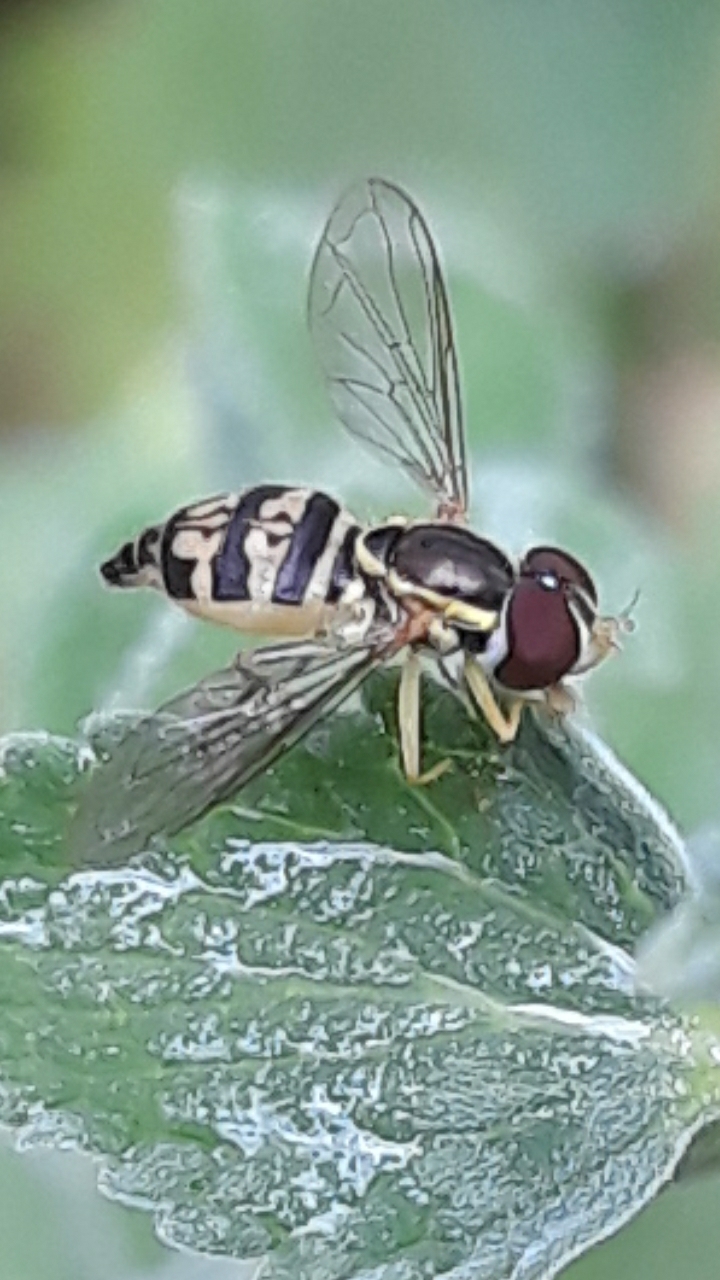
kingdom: Animalia
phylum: Arthropoda
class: Insecta
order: Diptera
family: Syrphidae
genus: Toxomerus
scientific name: Toxomerus geminatus
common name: Eastern calligrapher
